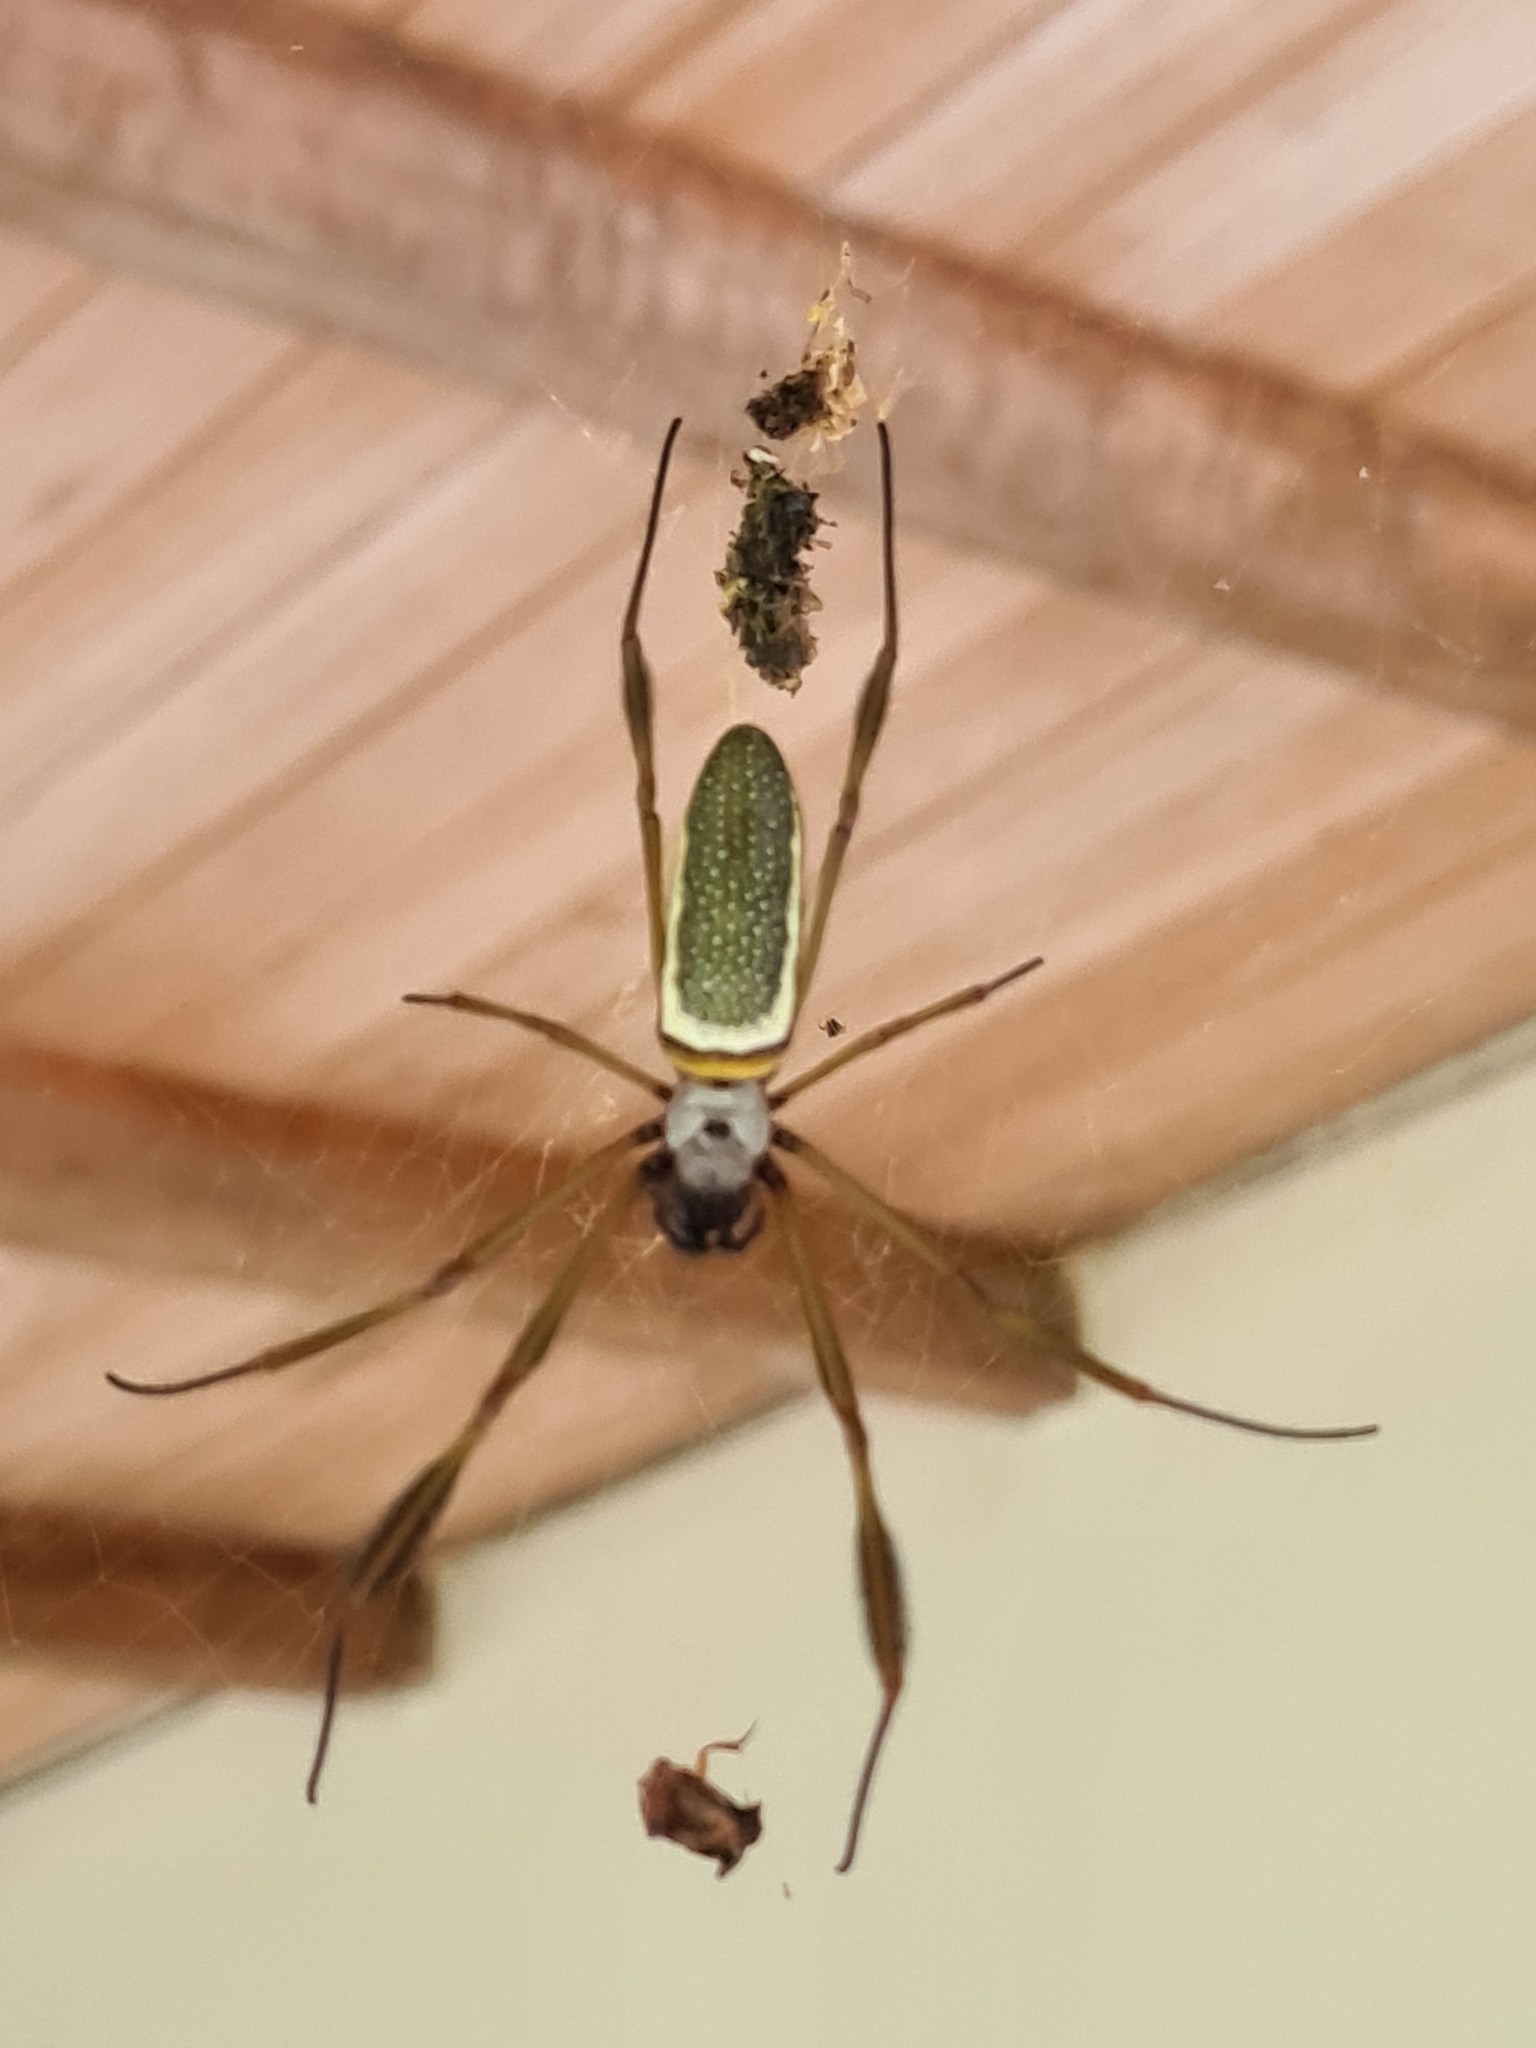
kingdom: Animalia
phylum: Arthropoda
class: Arachnida
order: Araneae
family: Araneidae
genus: Trichonephila
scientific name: Trichonephila clavipes
